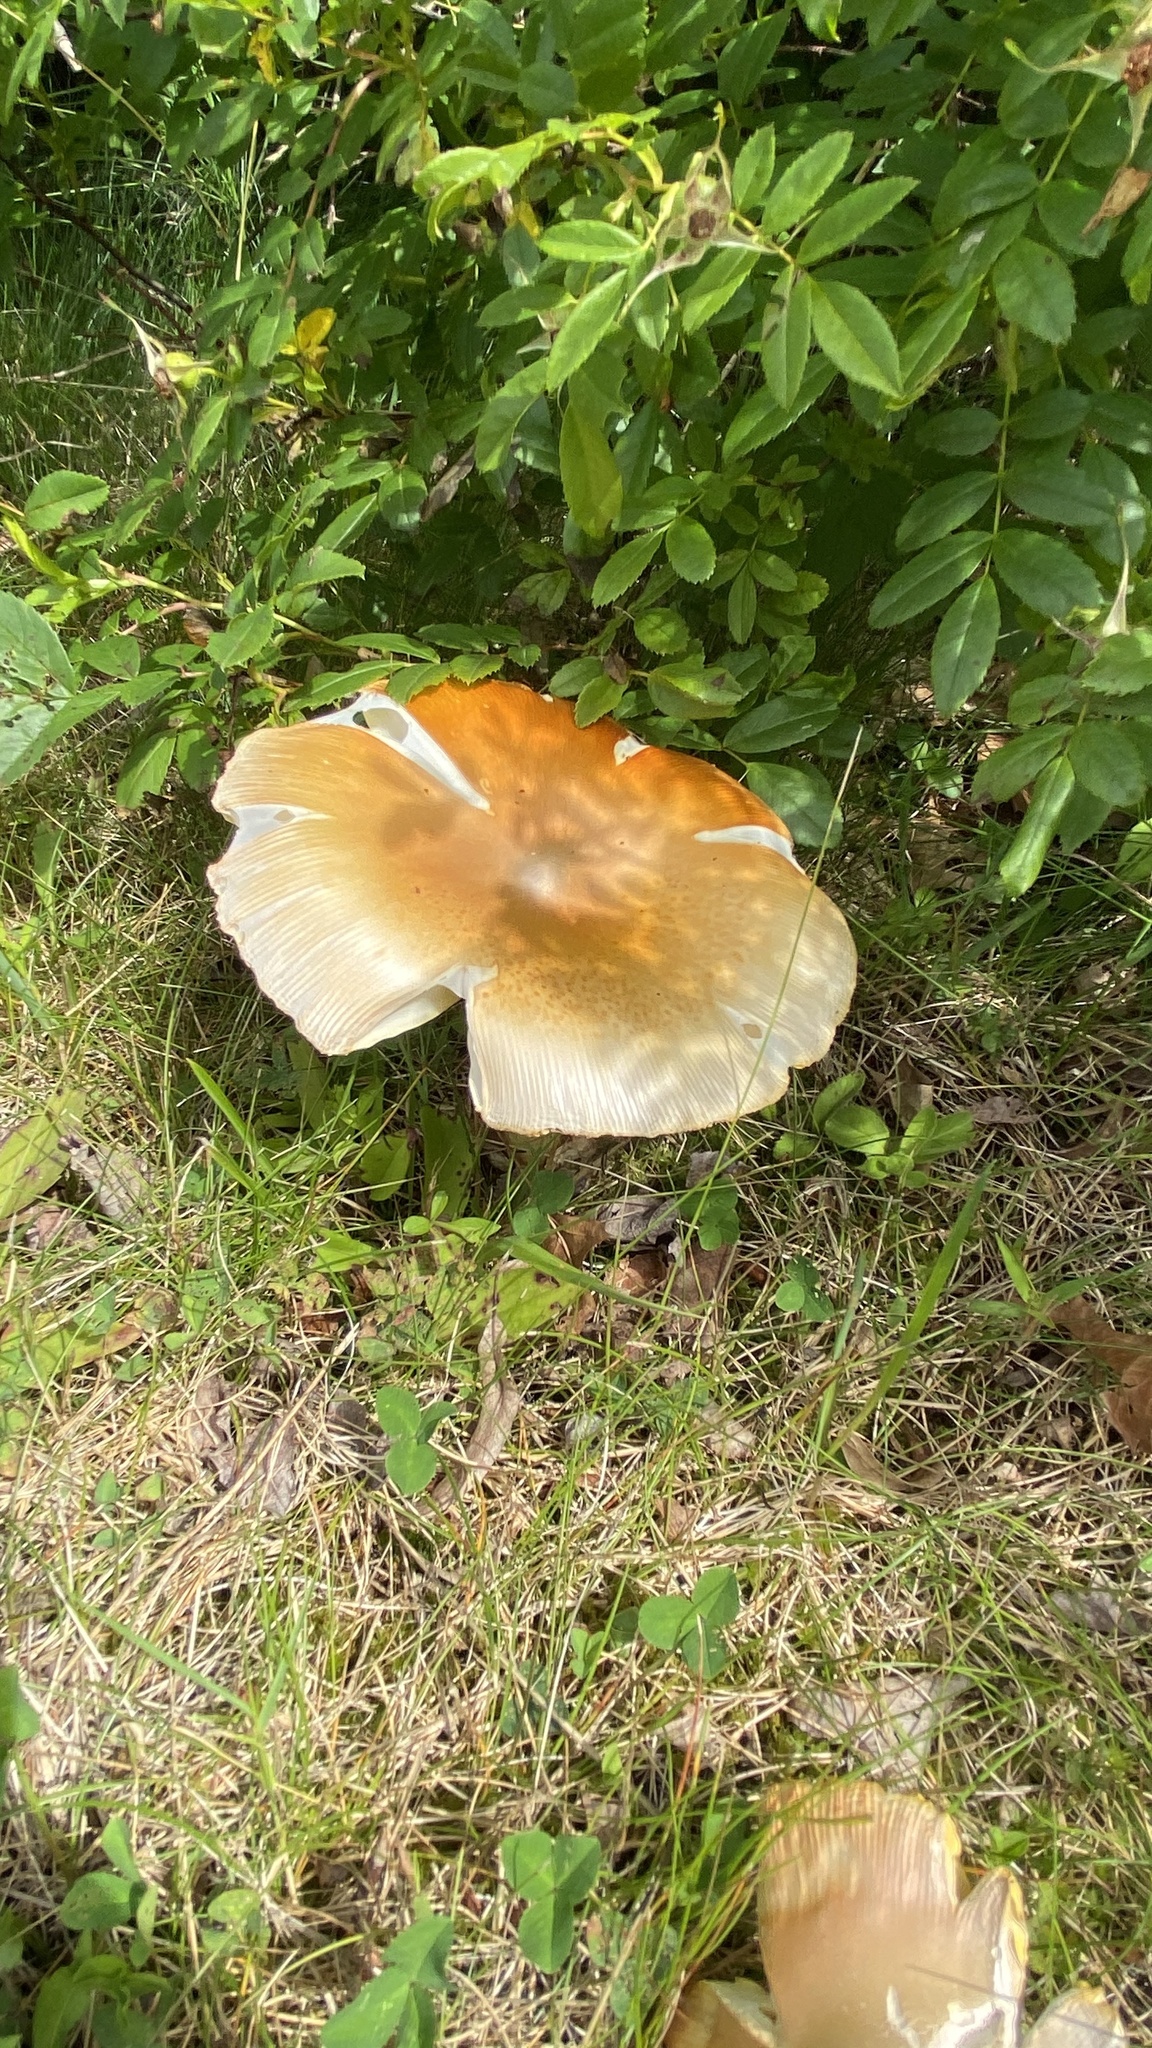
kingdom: Fungi
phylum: Basidiomycota
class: Agaricomycetes
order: Agaricales
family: Amanitaceae
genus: Amanita
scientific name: Amanita jacksonii
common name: Jackson's slender caesar
